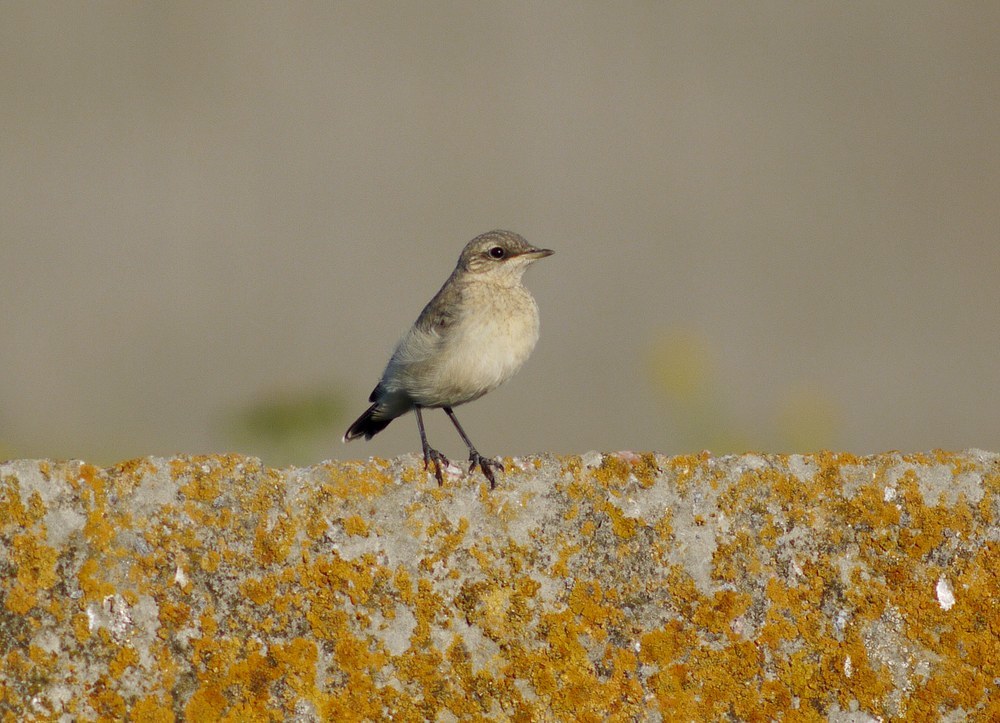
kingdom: Animalia
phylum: Chordata
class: Aves
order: Passeriformes
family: Muscicapidae
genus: Oenanthe
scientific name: Oenanthe oenanthe
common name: Northern wheatear
